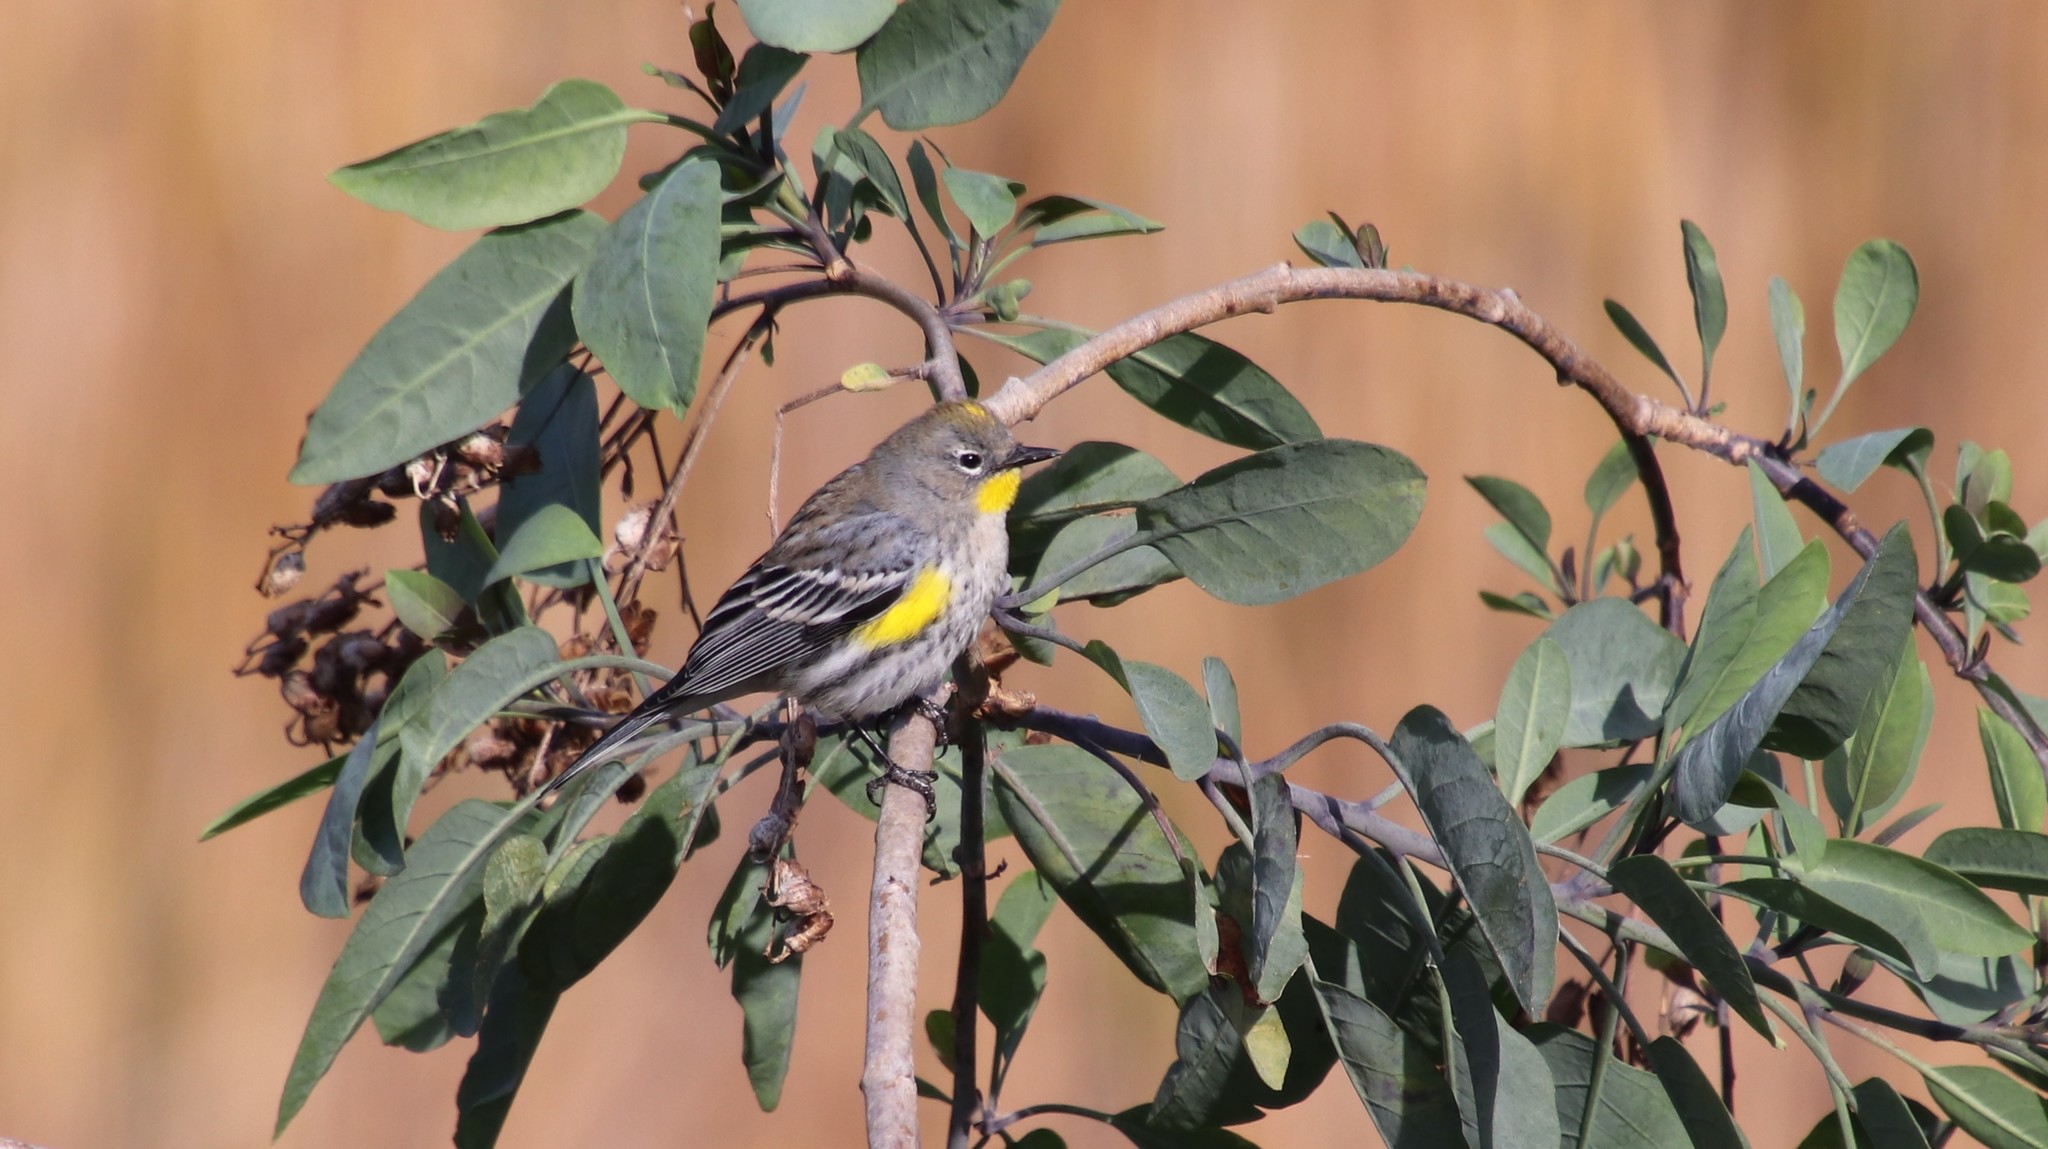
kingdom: Animalia
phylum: Chordata
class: Aves
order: Passeriformes
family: Parulidae
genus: Setophaga
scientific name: Setophaga auduboni
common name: Audubon's warbler
